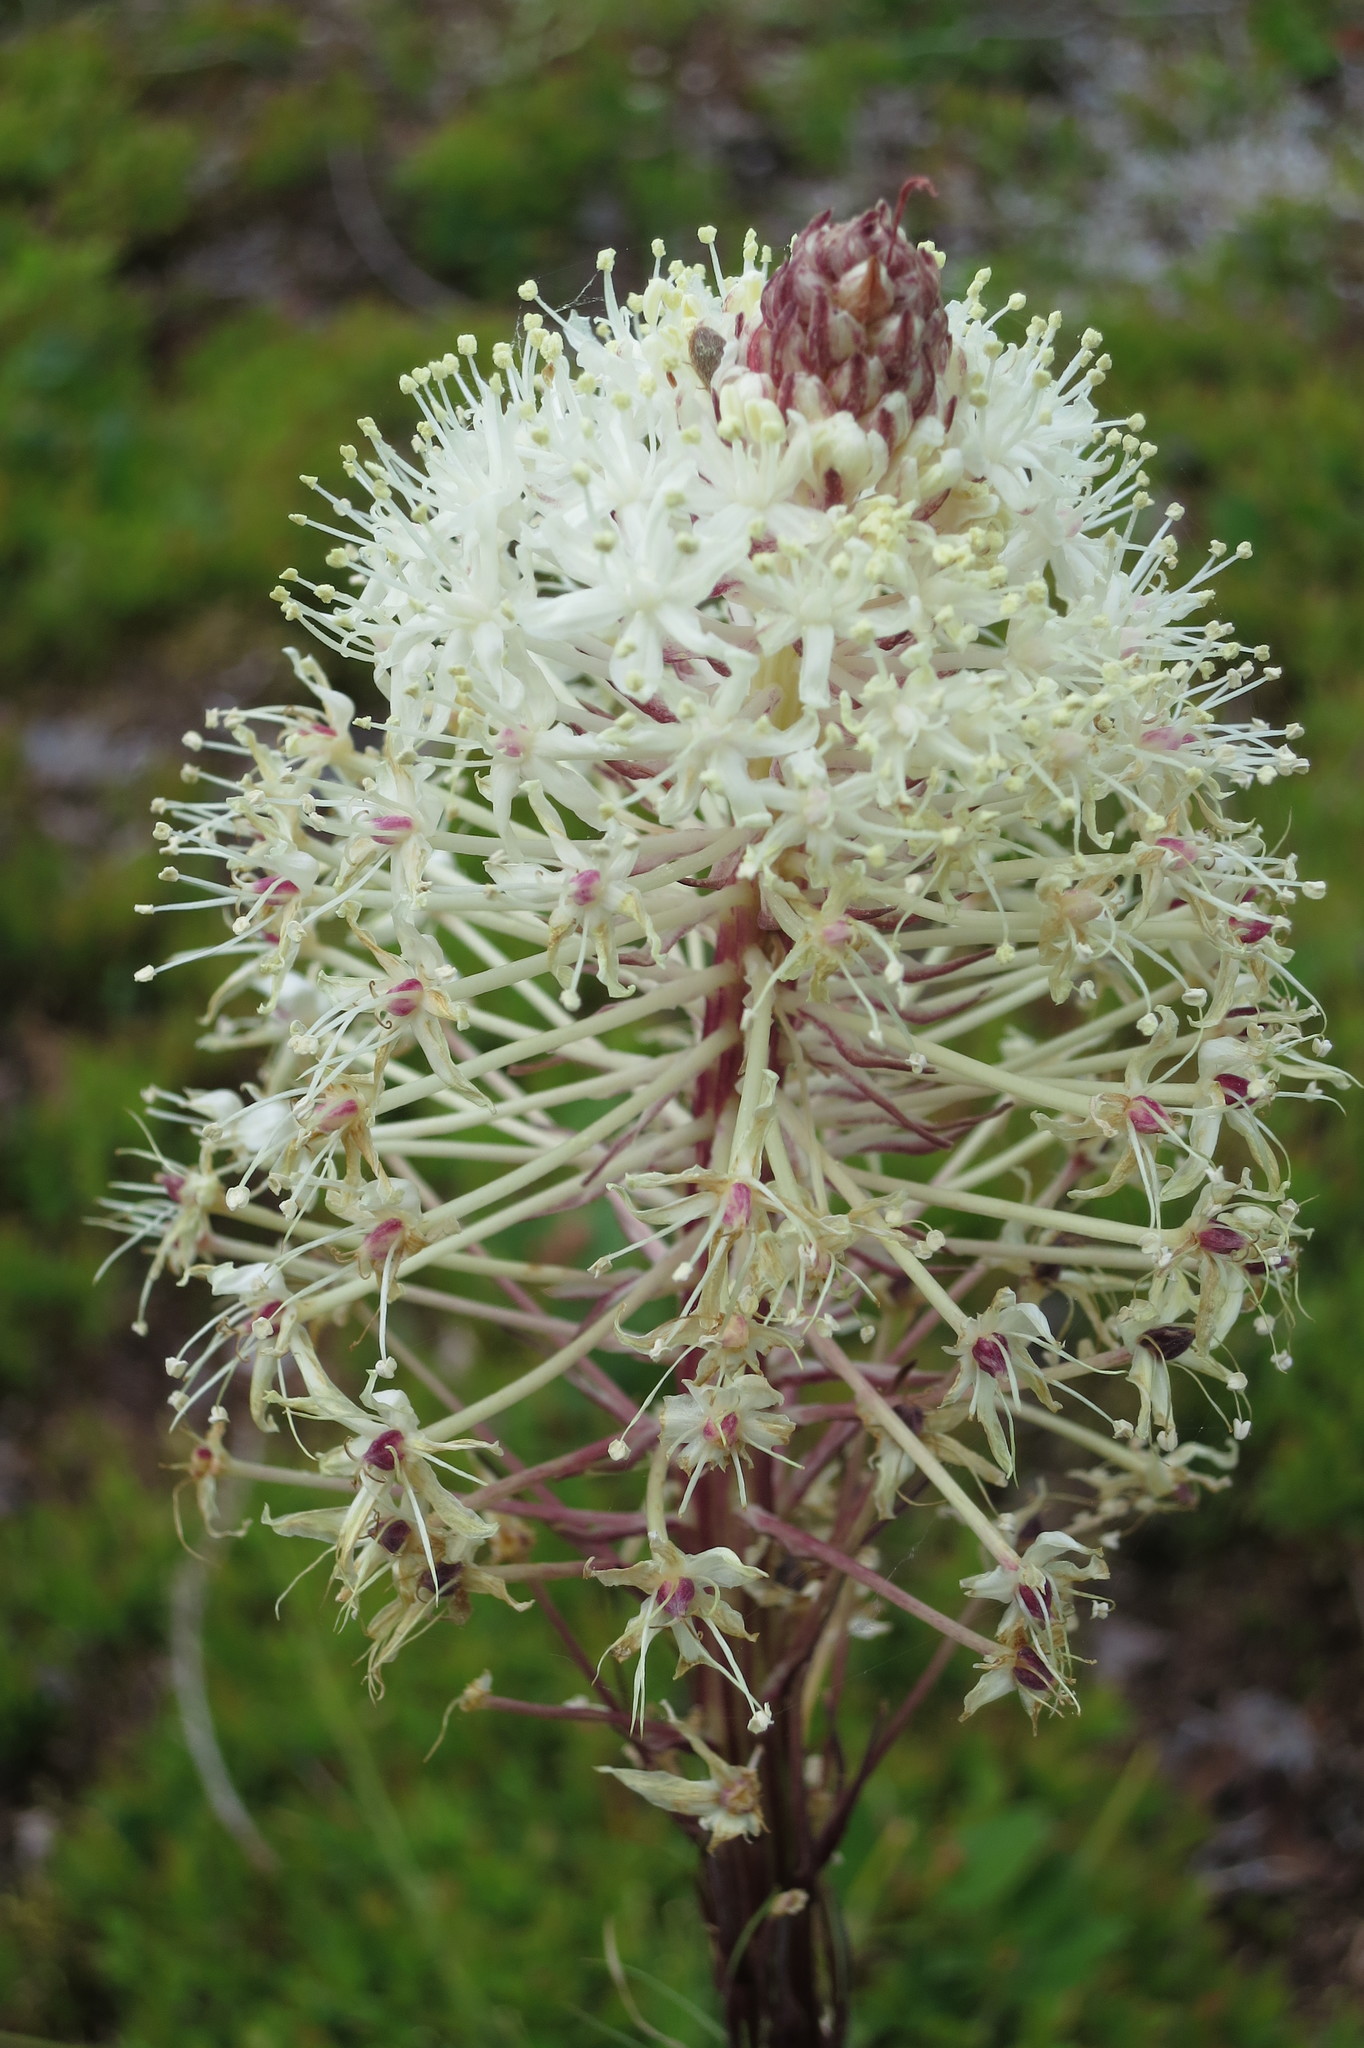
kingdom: Plantae
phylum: Tracheophyta
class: Liliopsida
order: Liliales
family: Melanthiaceae
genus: Xerophyllum
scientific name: Xerophyllum tenax
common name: Bear-grass
